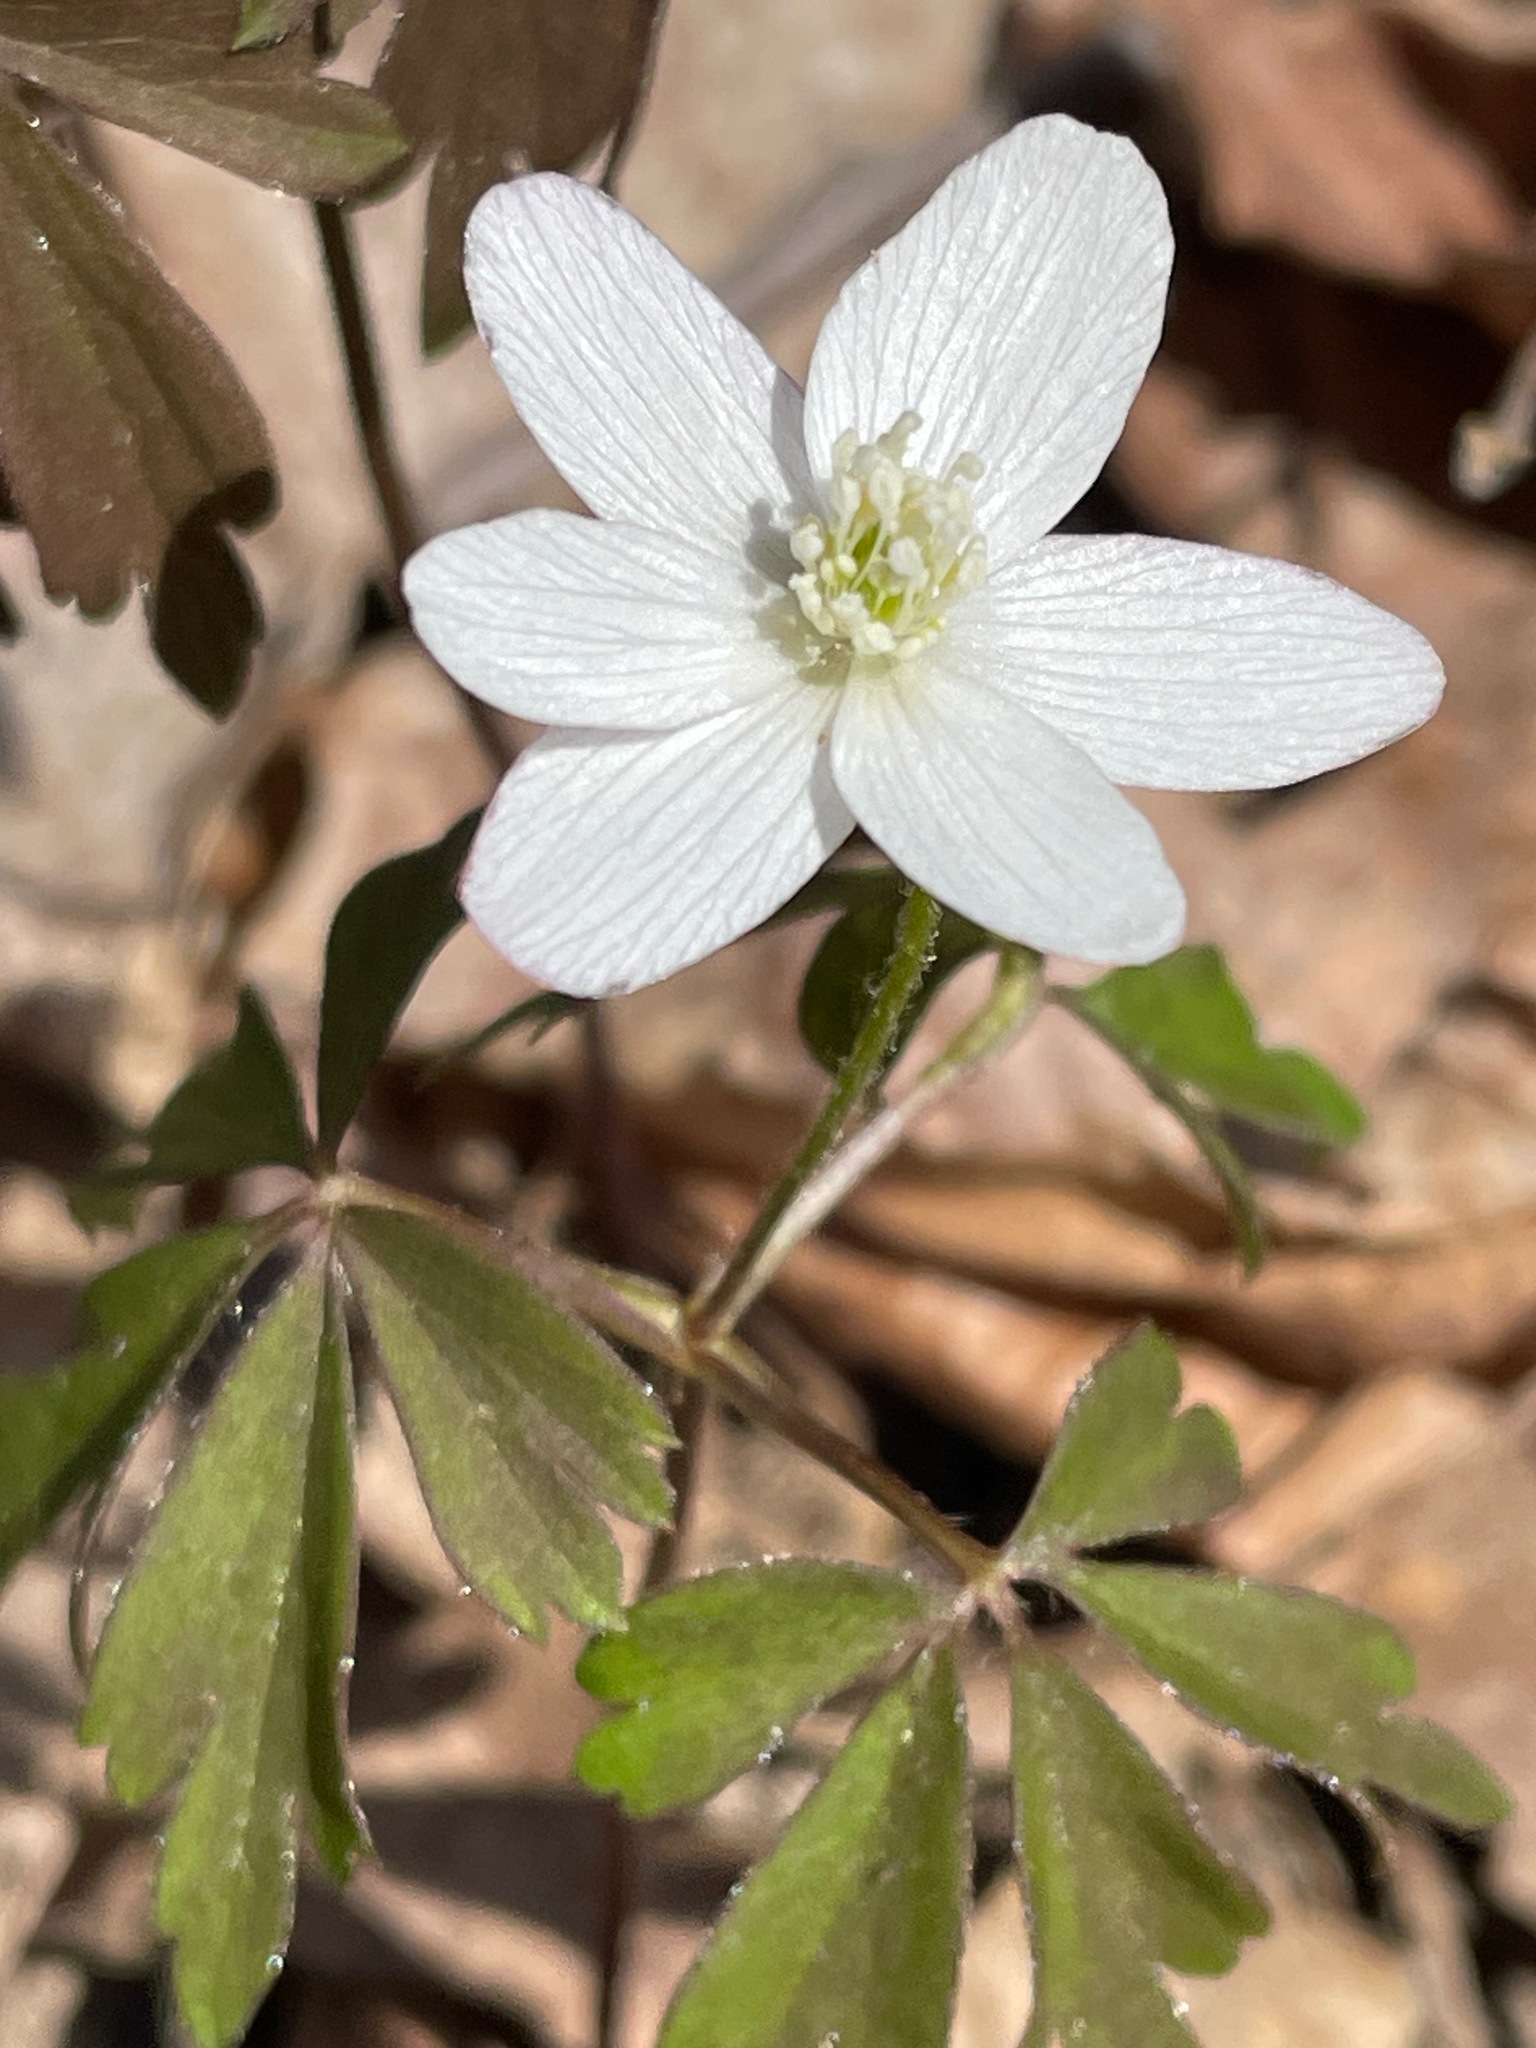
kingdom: Plantae
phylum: Tracheophyta
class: Magnoliopsida
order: Ranunculales
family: Ranunculaceae
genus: Anemone
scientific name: Anemone quinquefolia
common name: Wood anemone
